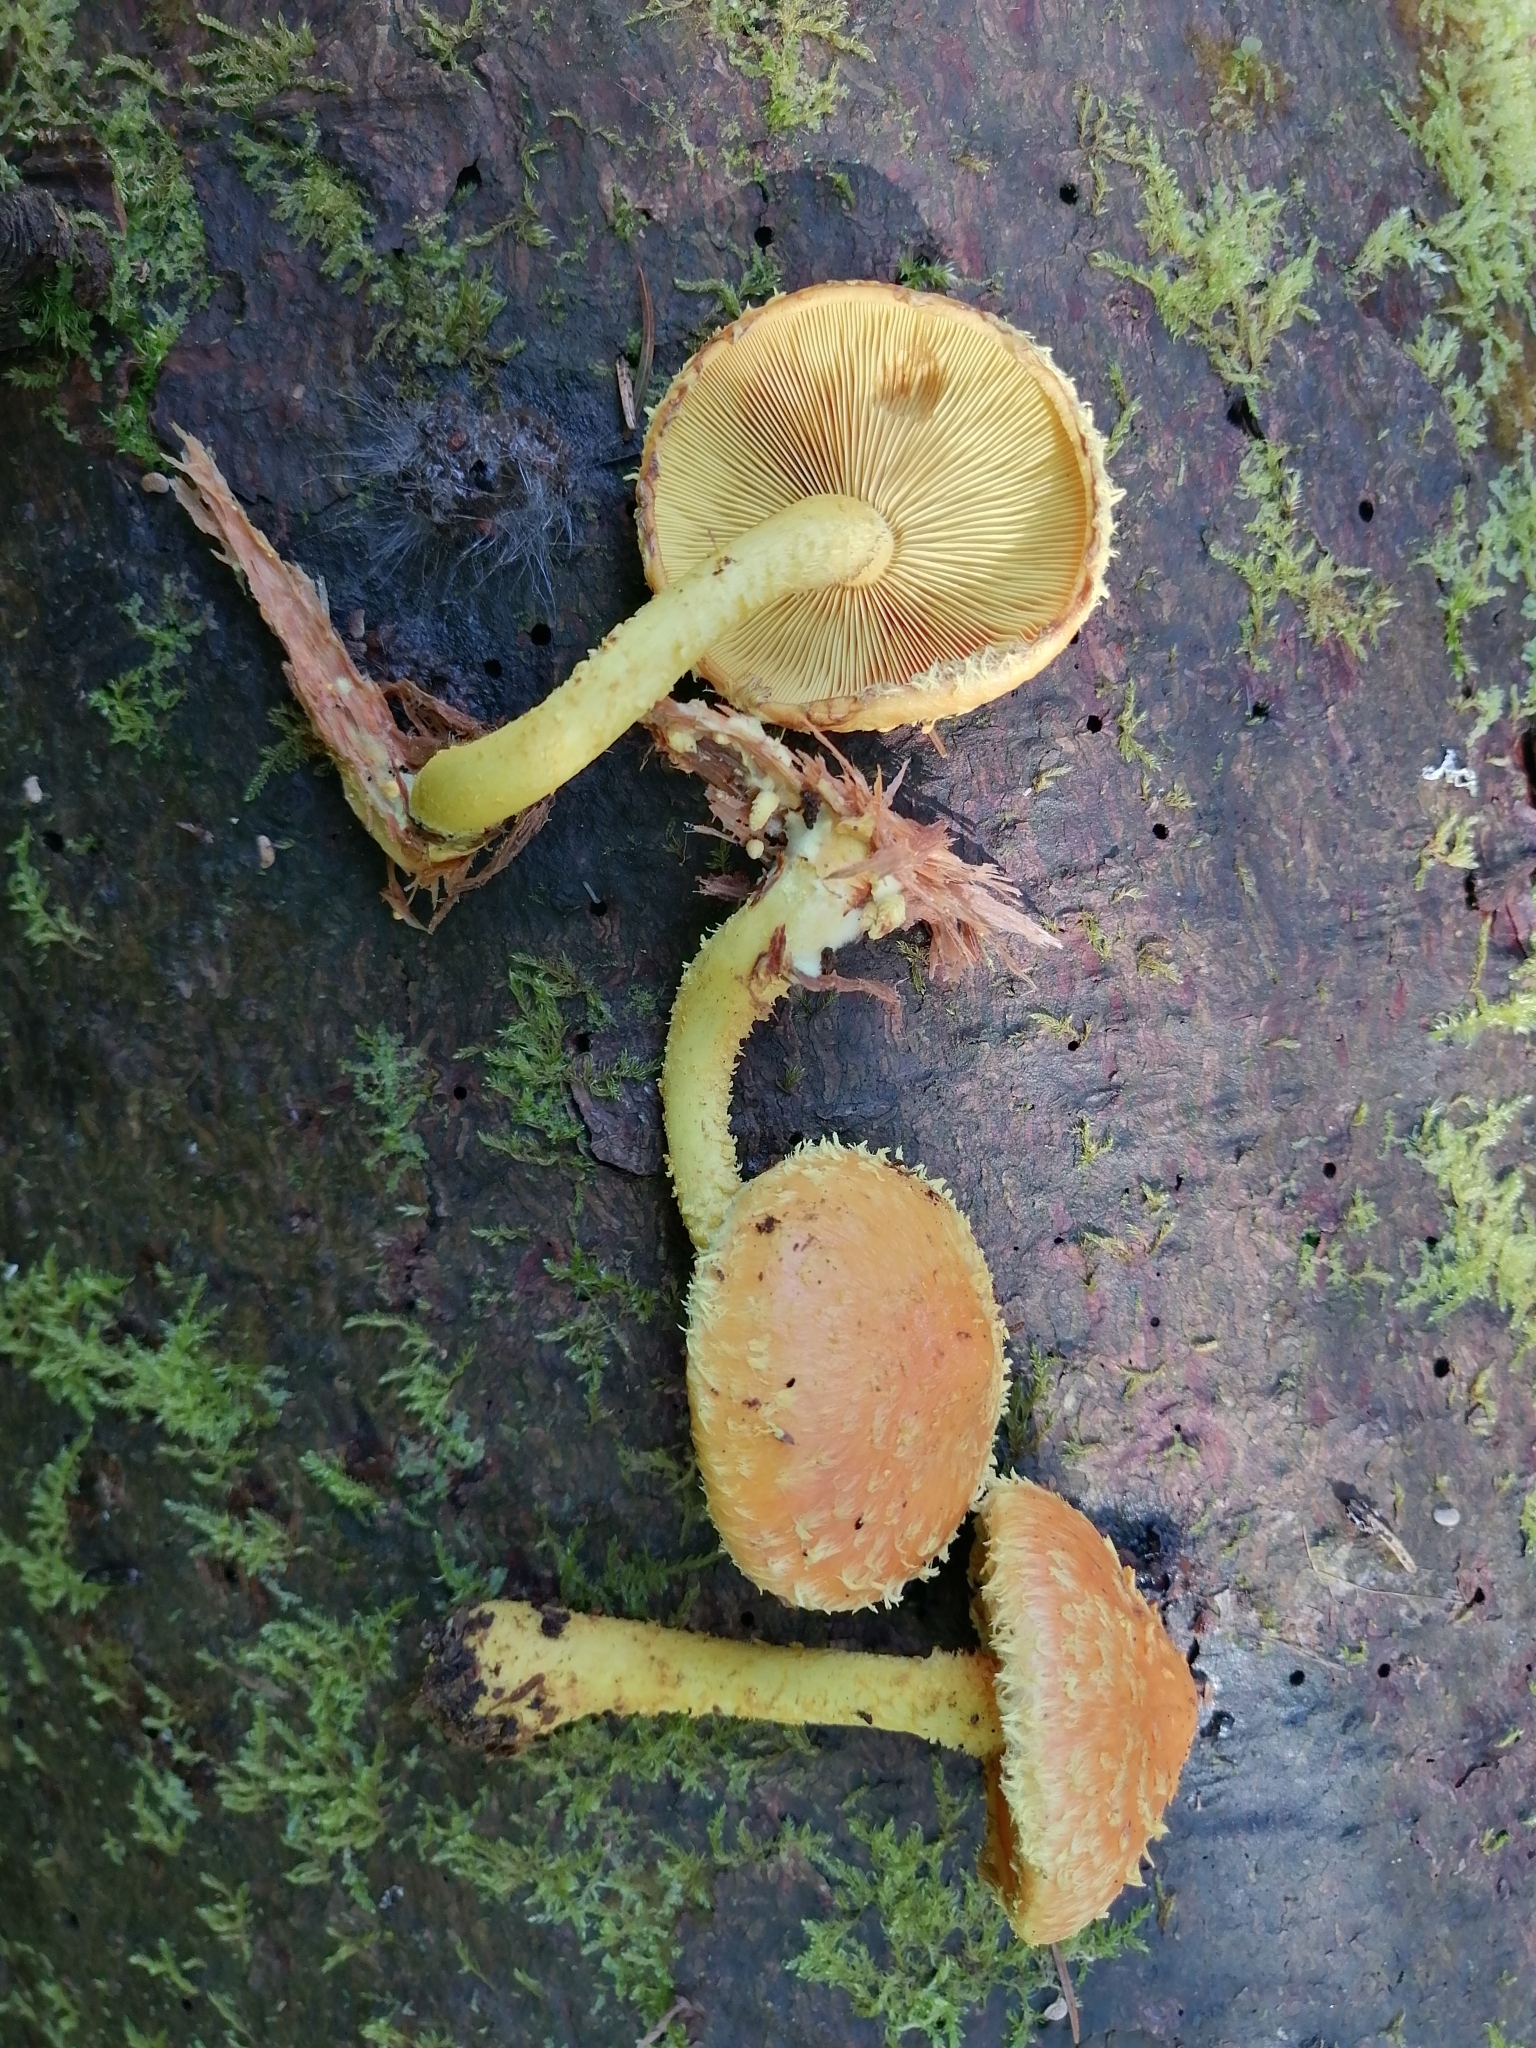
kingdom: Fungi
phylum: Basidiomycota
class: Agaricomycetes
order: Agaricales
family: Strophariaceae
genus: Pholiota
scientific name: Pholiota flammans
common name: Flaming scalycap
